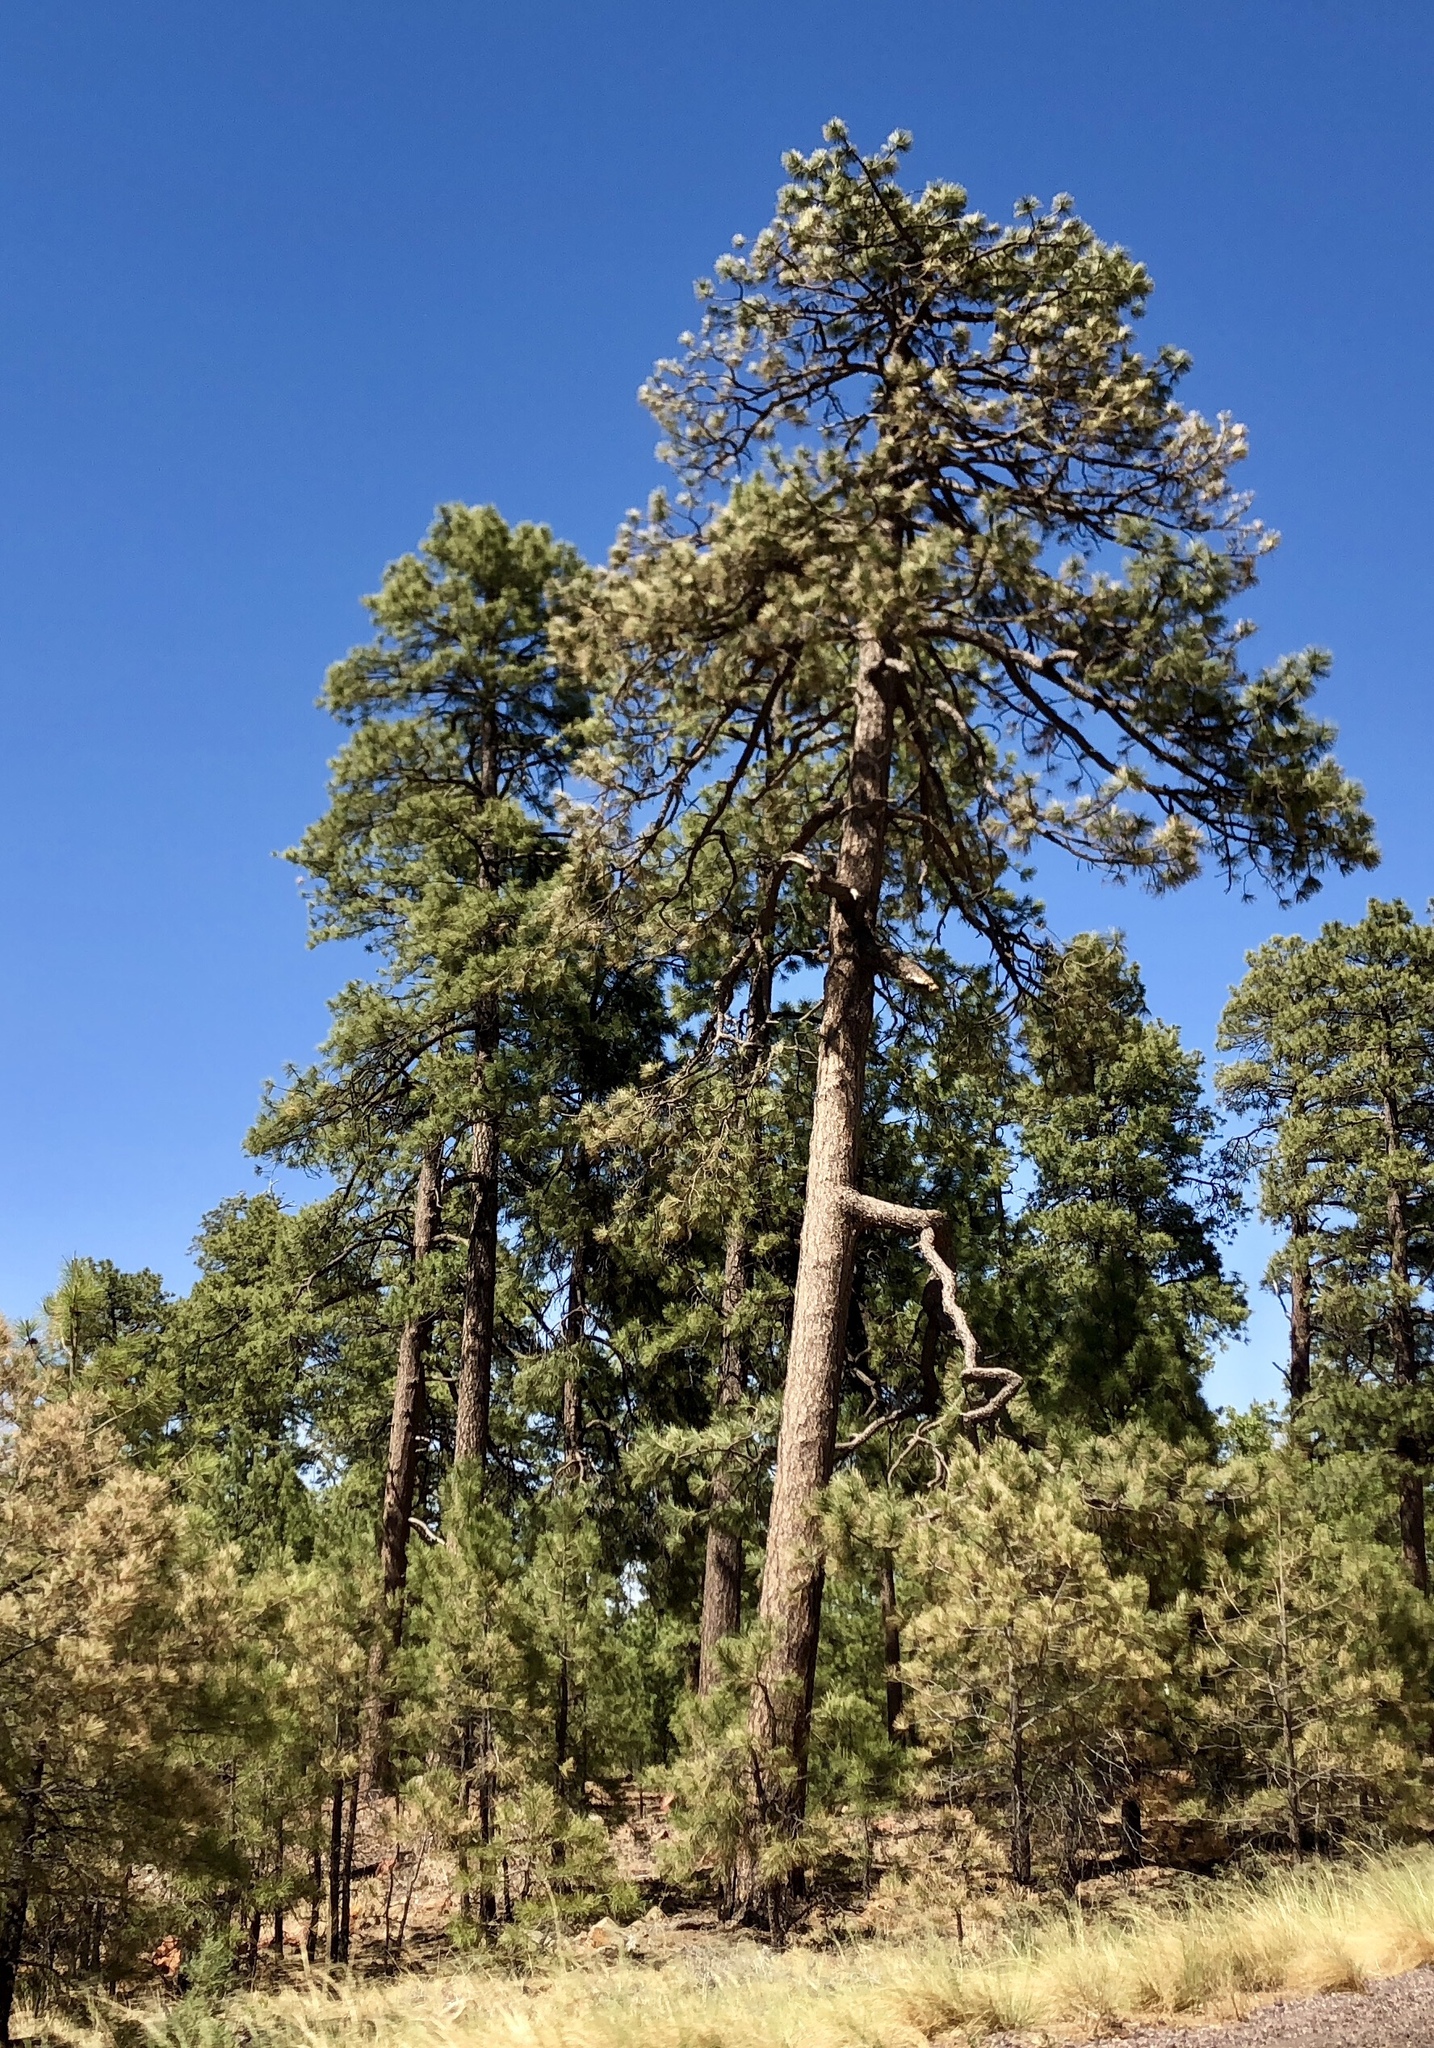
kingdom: Plantae
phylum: Tracheophyta
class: Pinopsida
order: Pinales
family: Pinaceae
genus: Pinus
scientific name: Pinus ponderosa
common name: Western yellow-pine
